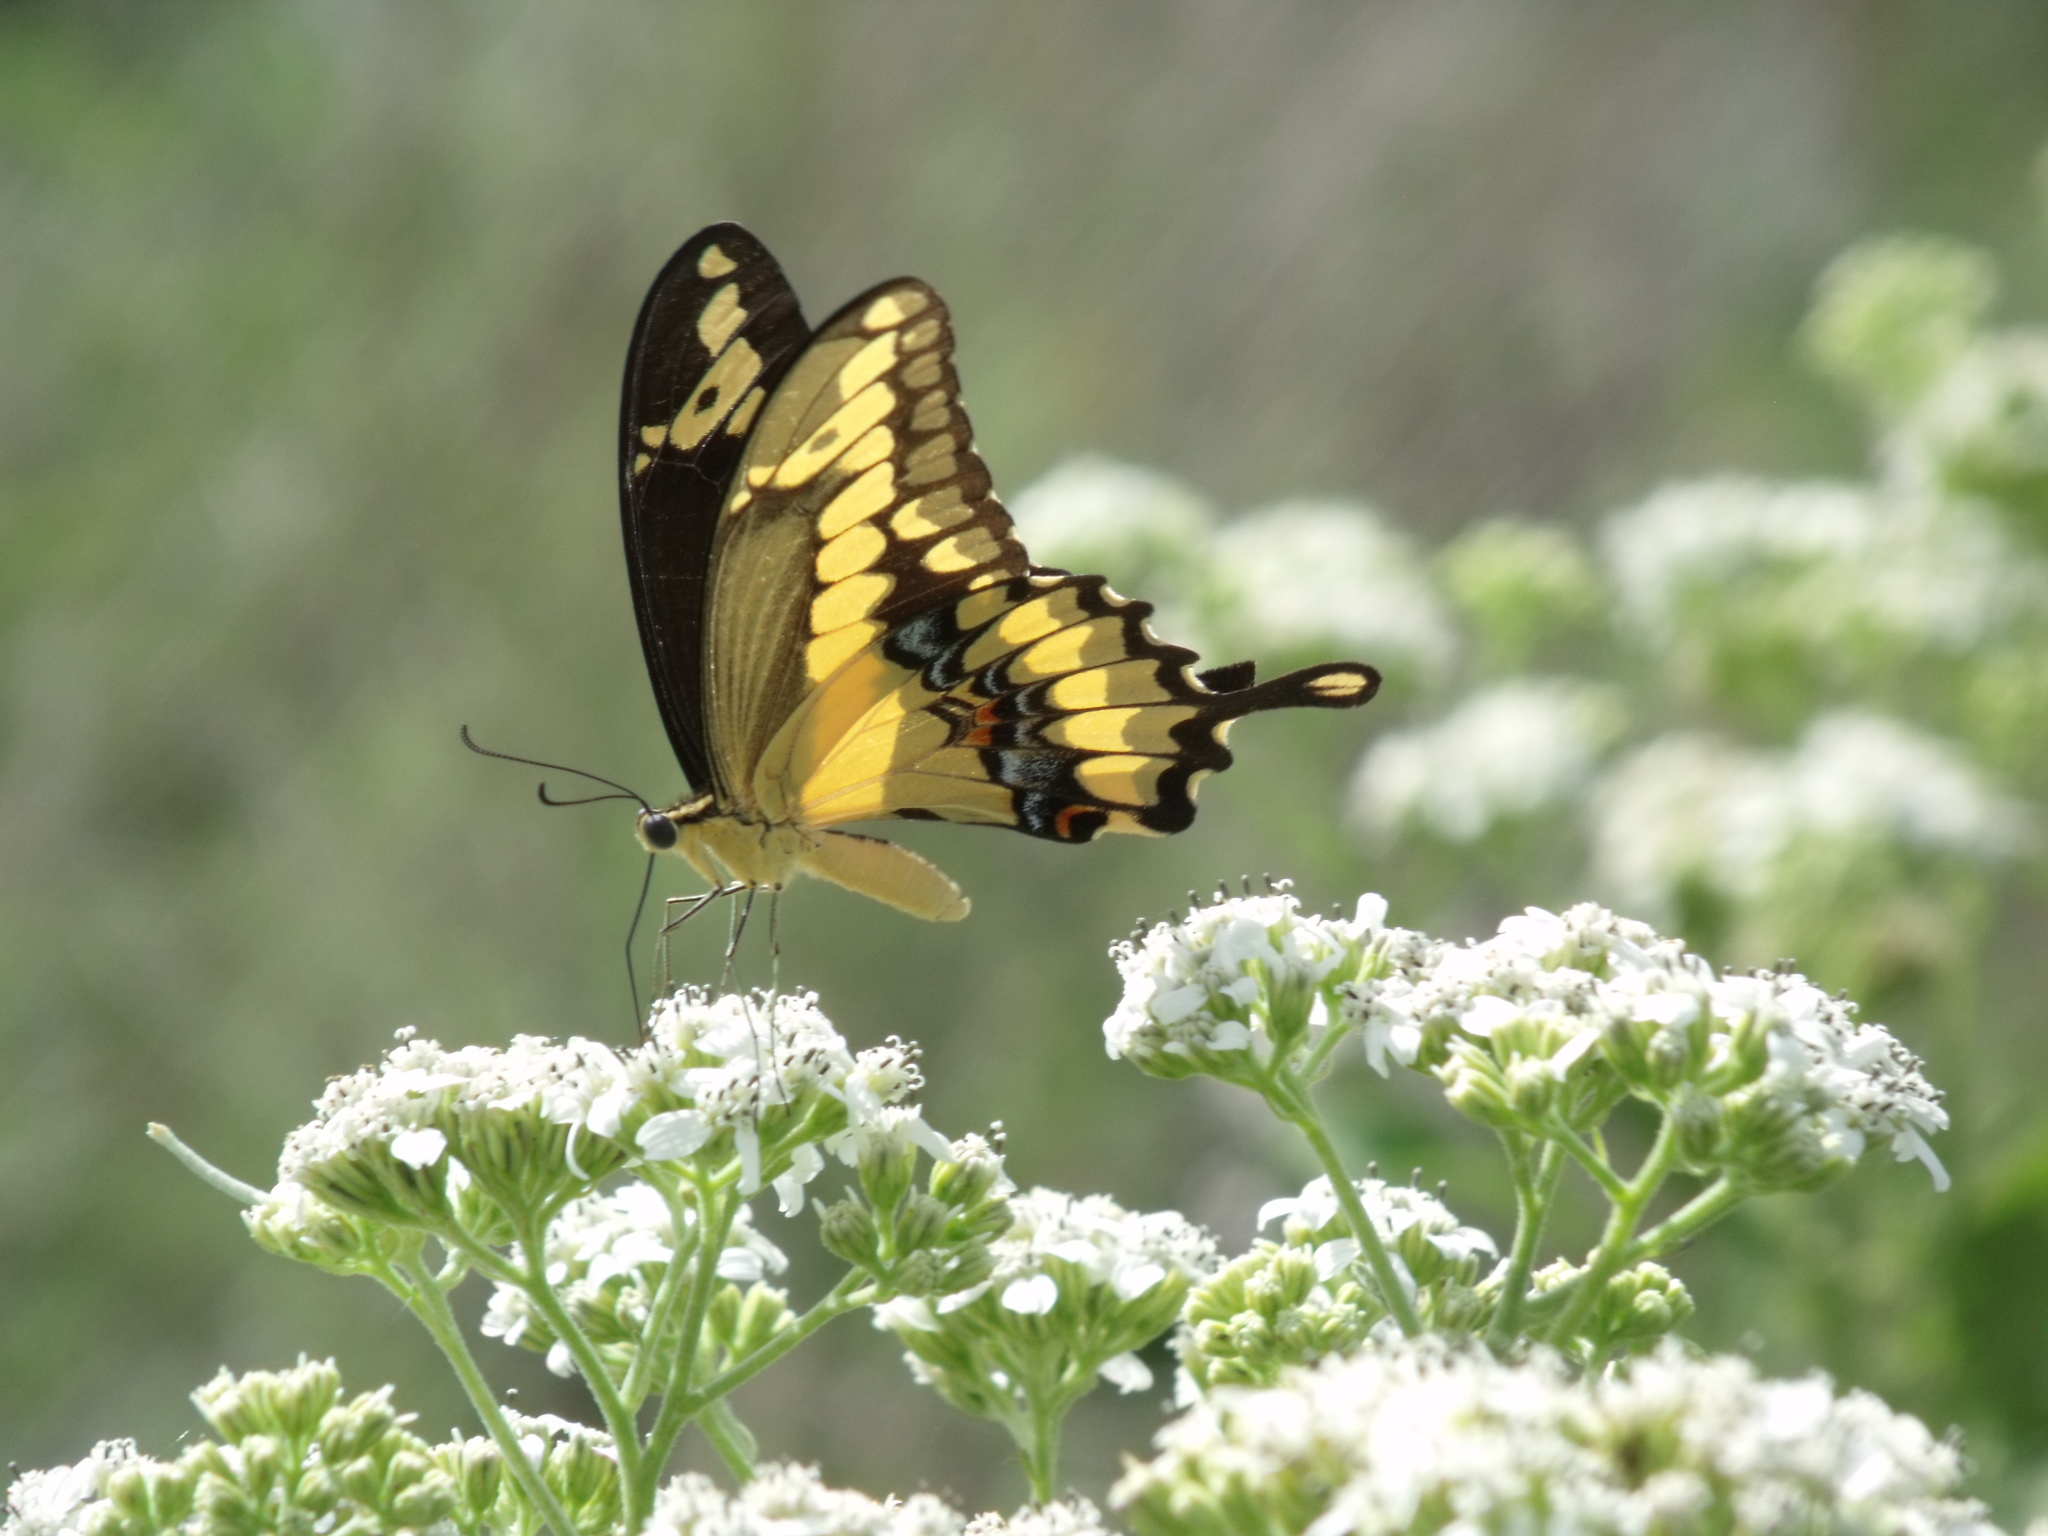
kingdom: Animalia
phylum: Arthropoda
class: Insecta
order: Lepidoptera
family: Papilionidae
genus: Papilio
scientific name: Papilio rumiko
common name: Western giant swallowtail
